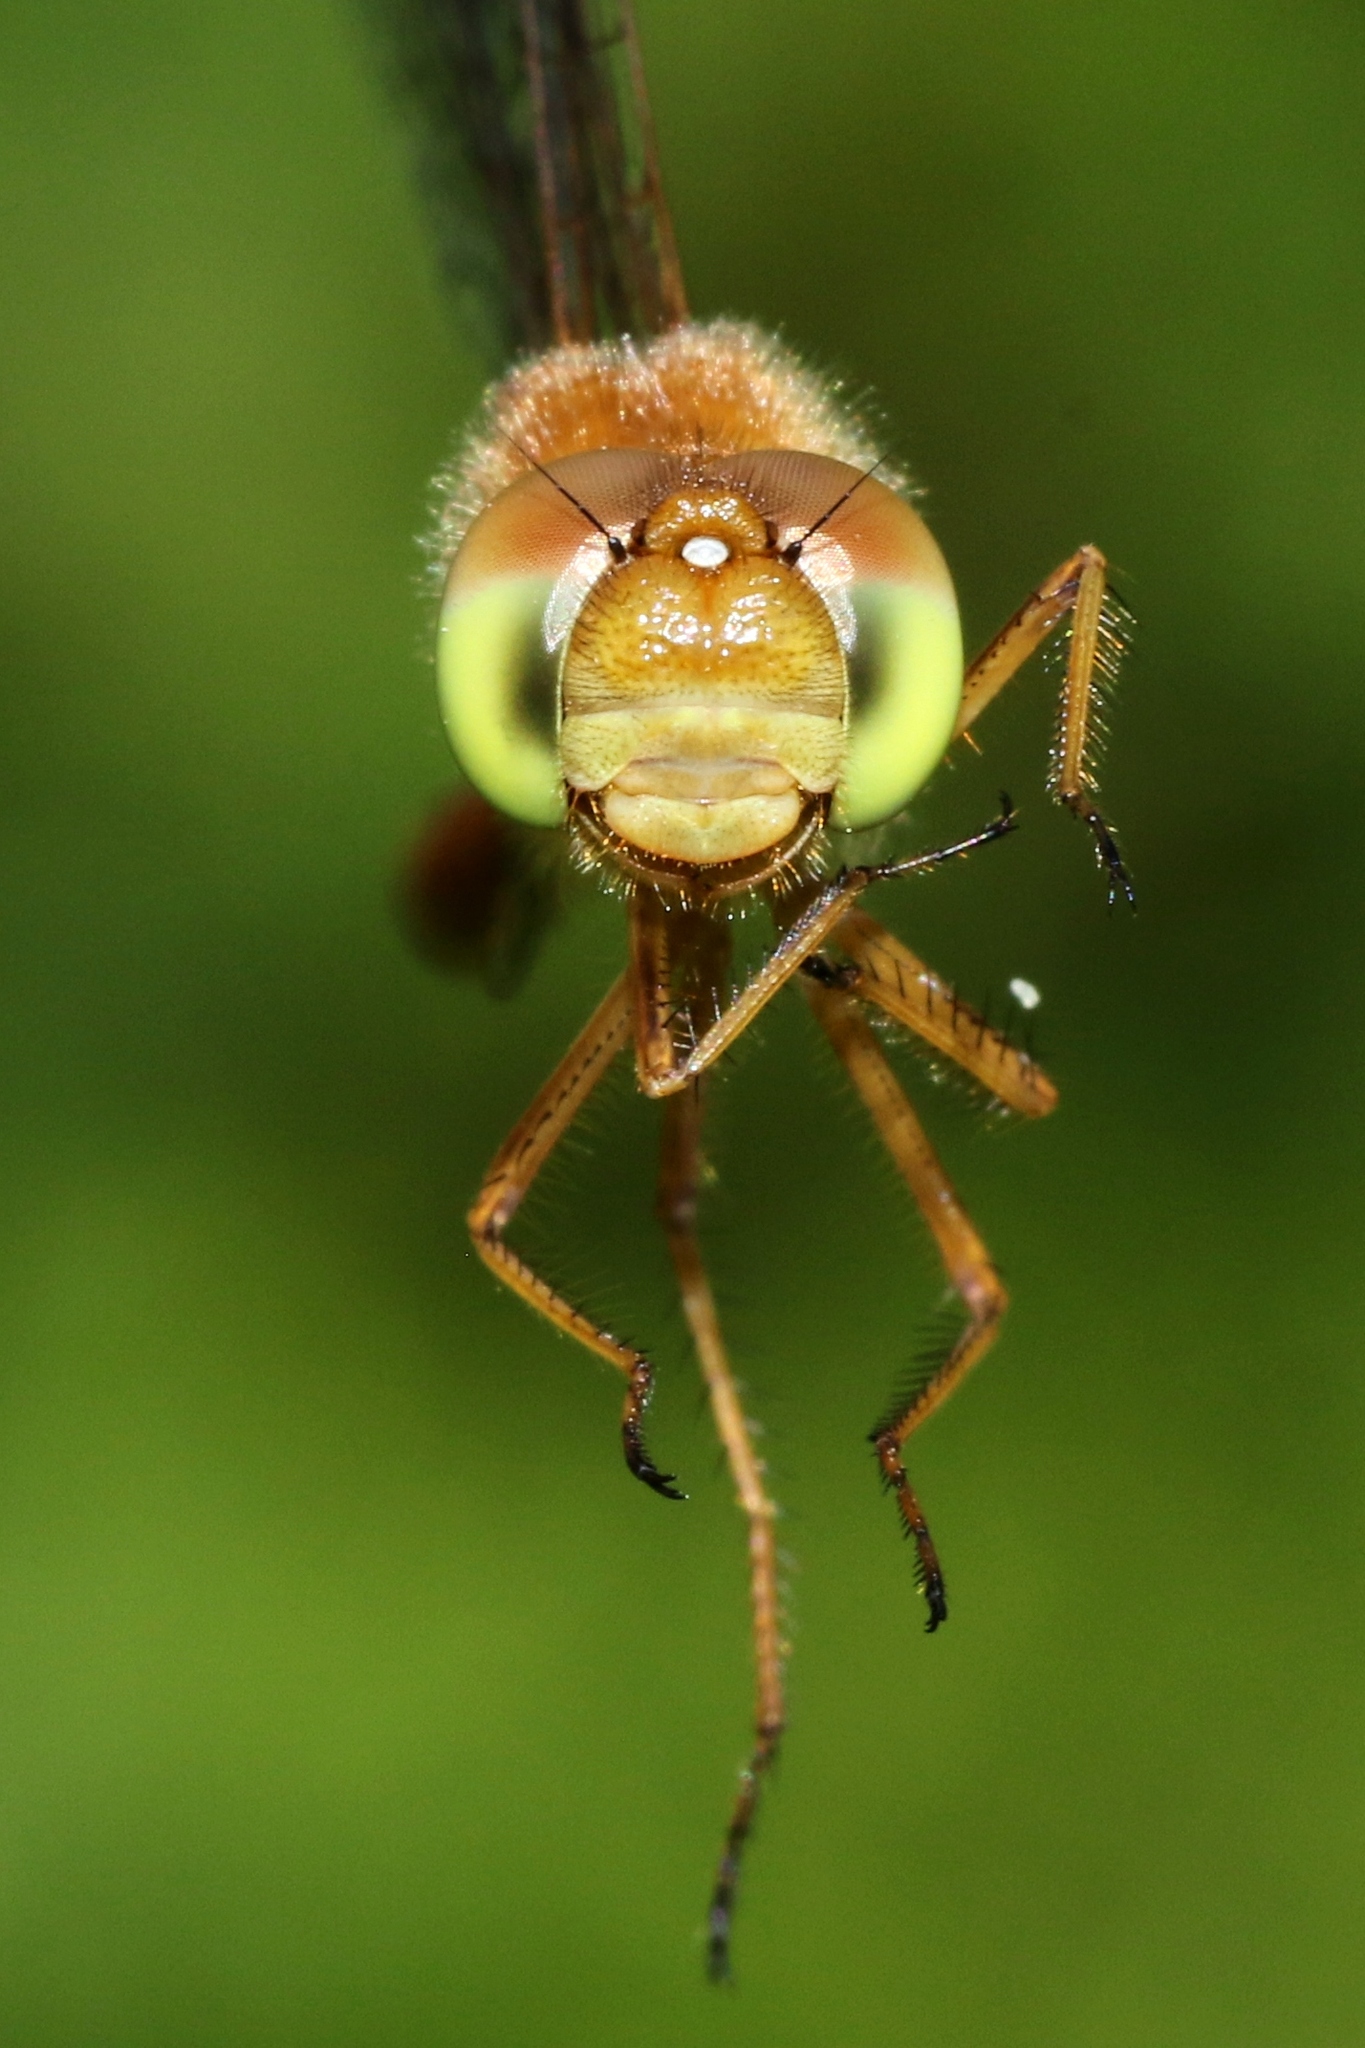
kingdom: Animalia
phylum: Arthropoda
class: Insecta
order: Odonata
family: Libellulidae
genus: Sympetrum
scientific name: Sympetrum vicinum
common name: Autumn meadowhawk
